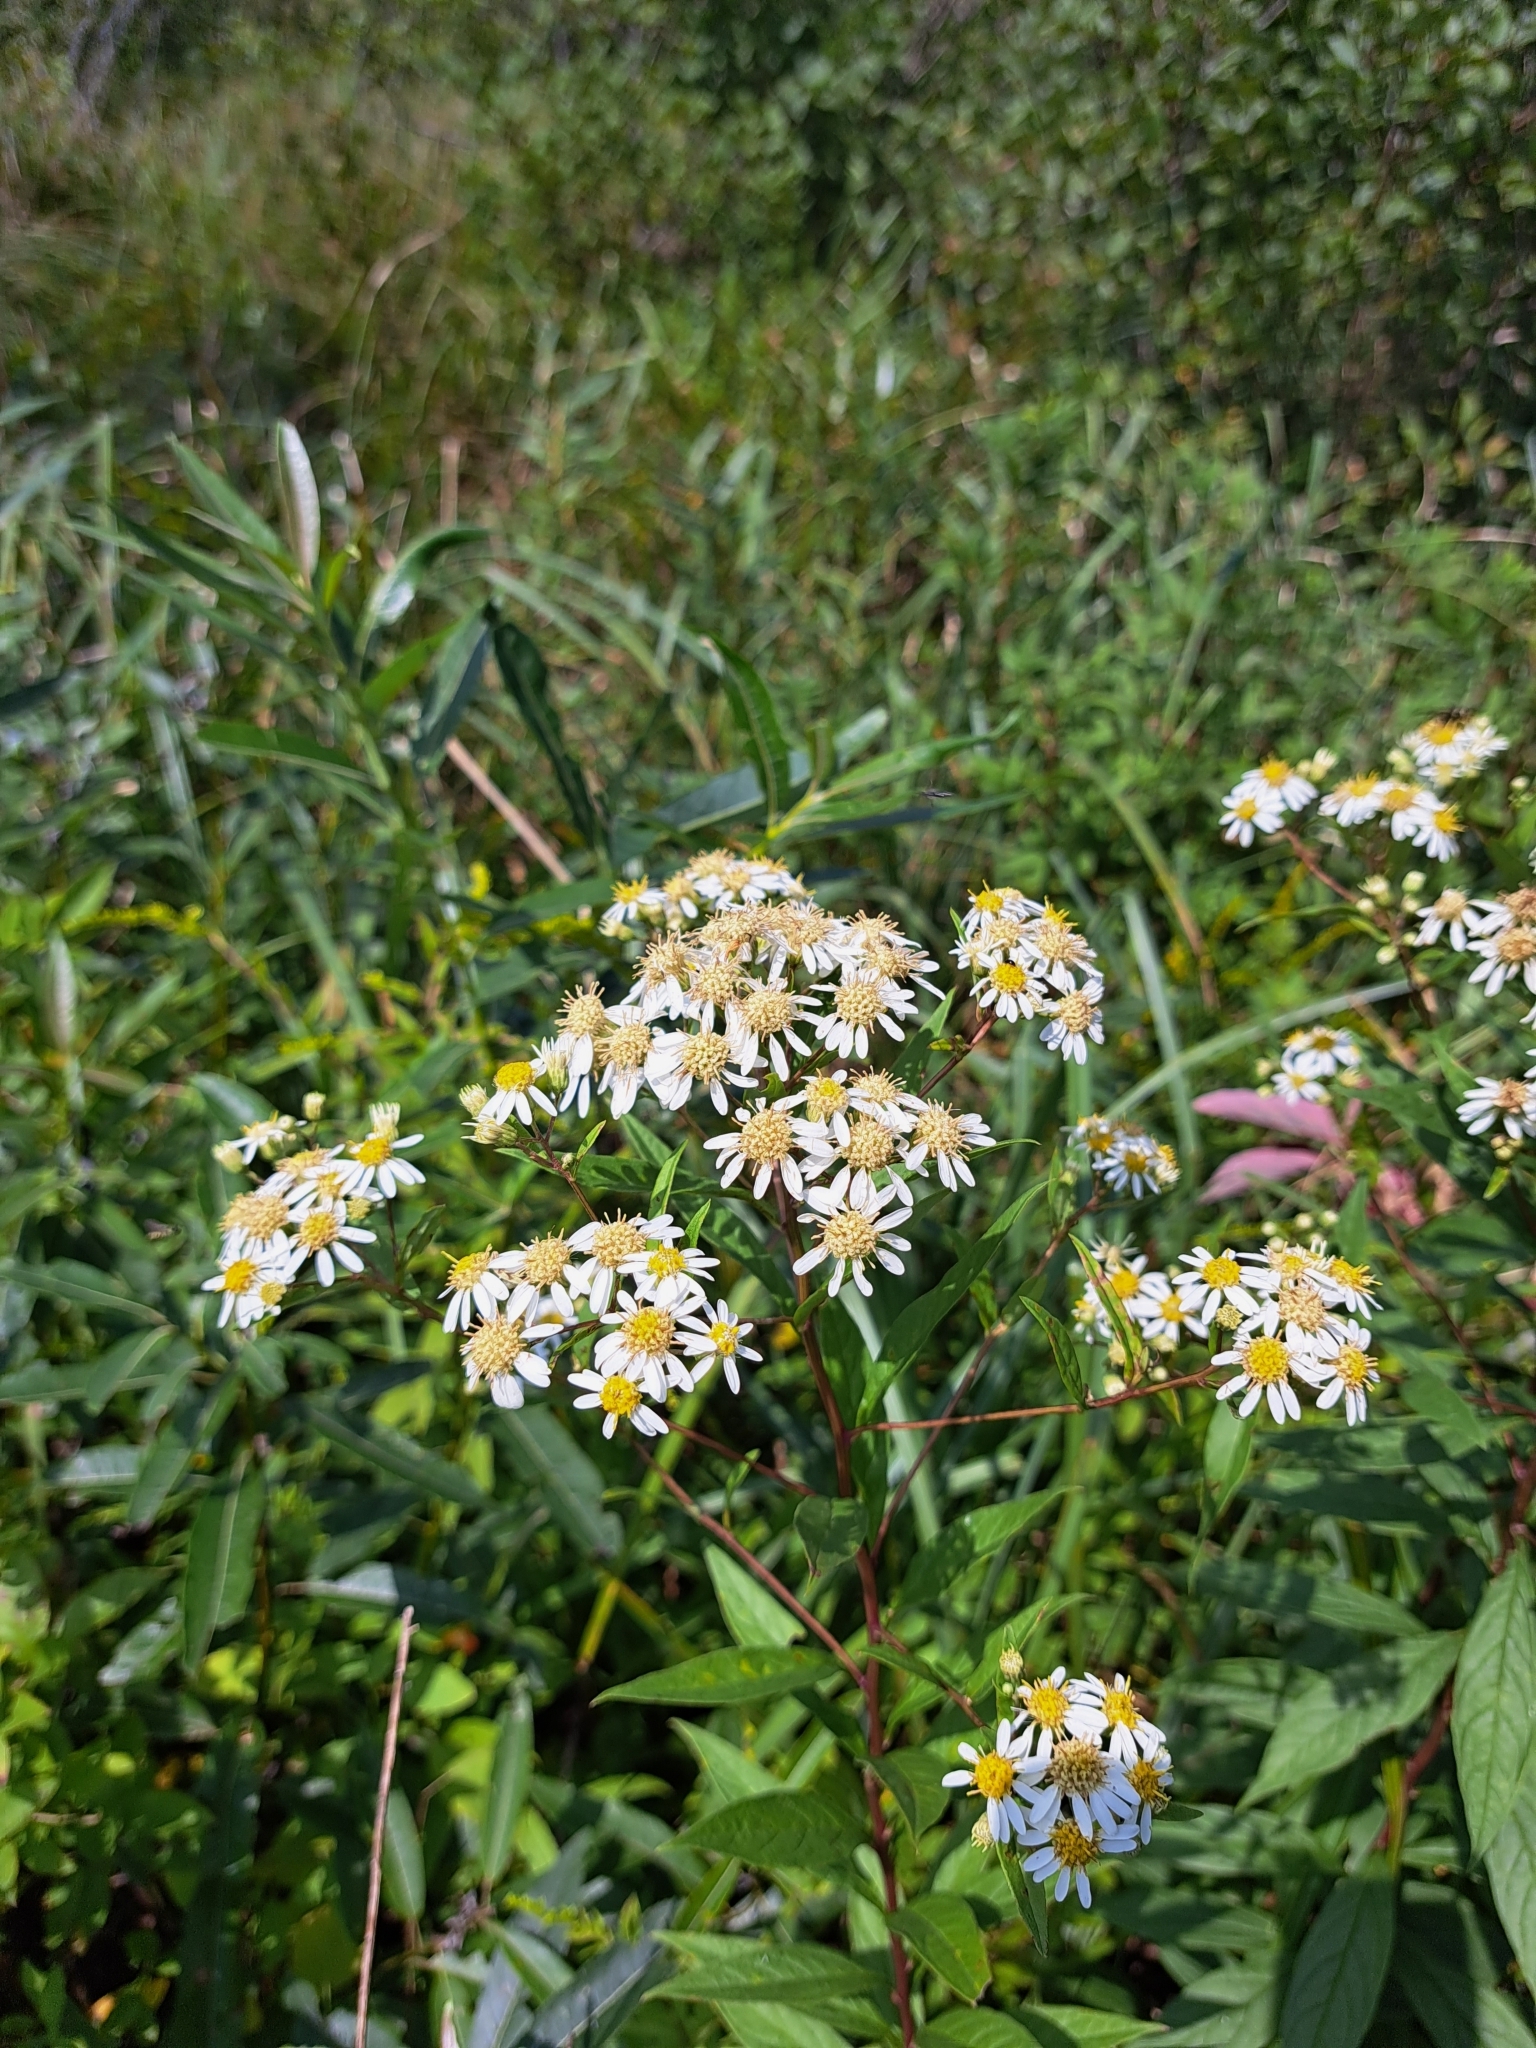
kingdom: Plantae
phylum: Tracheophyta
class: Magnoliopsida
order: Asterales
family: Asteraceae
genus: Doellingeria
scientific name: Doellingeria umbellata
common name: Flat-top white aster
